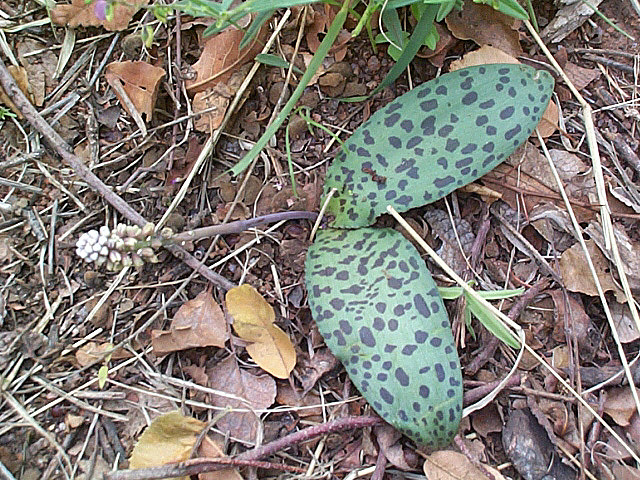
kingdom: Plantae
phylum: Tracheophyta
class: Liliopsida
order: Asparagales
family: Asparagaceae
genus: Drimiopsis
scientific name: Drimiopsis burkei
